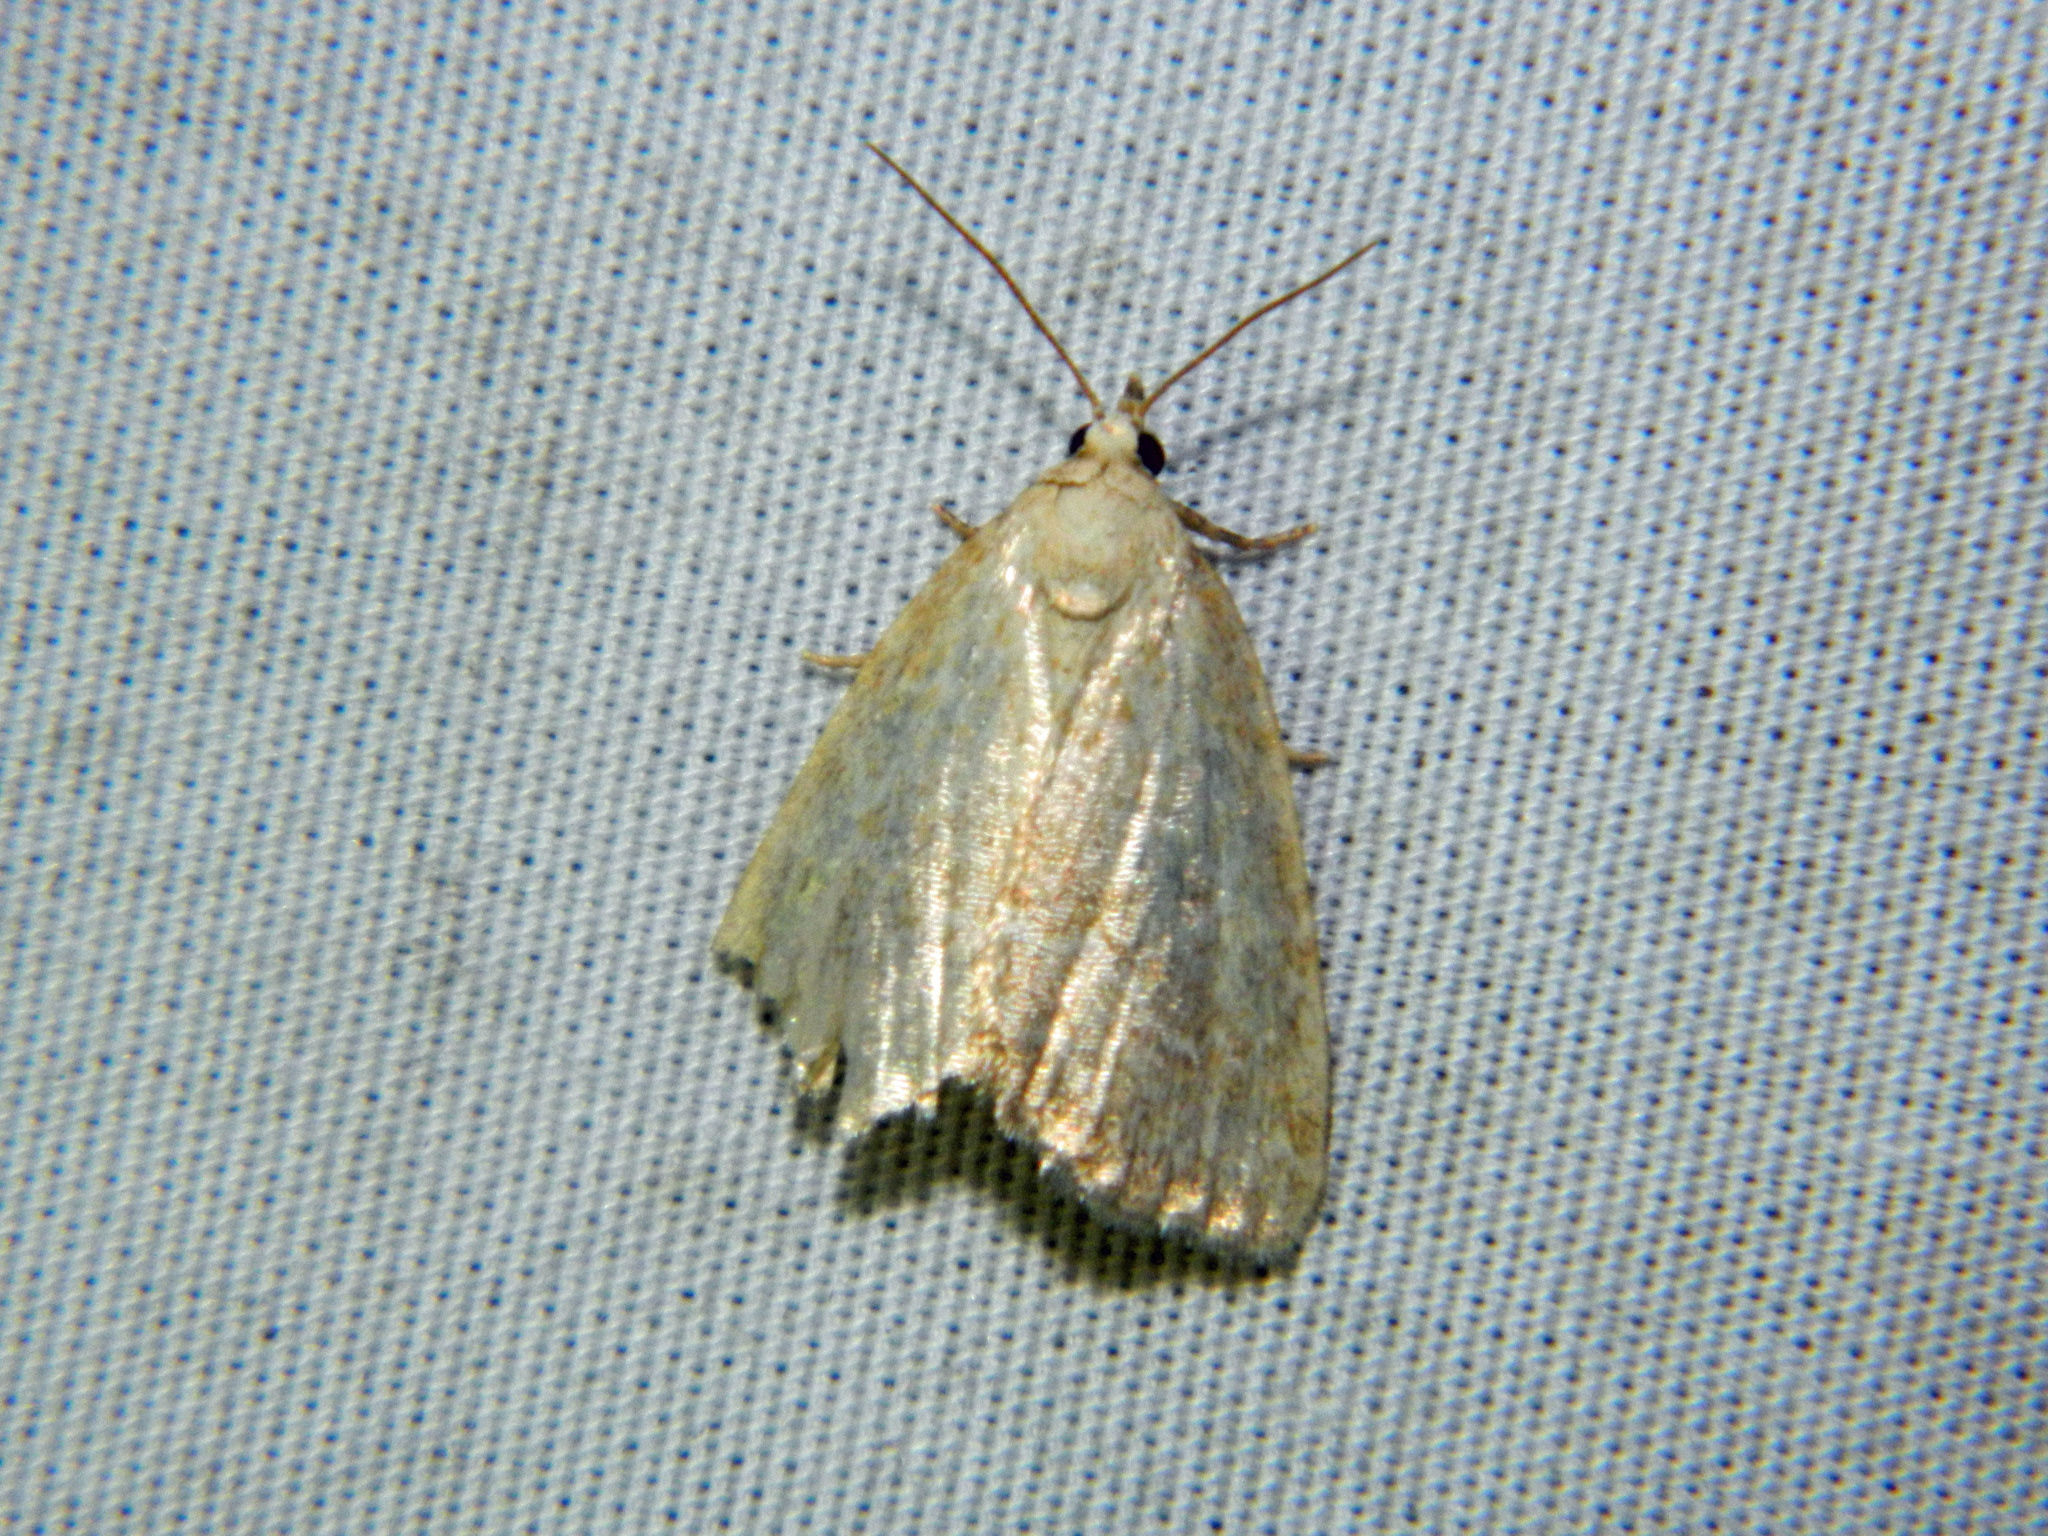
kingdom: Animalia
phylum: Arthropoda
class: Insecta
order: Lepidoptera
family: Noctuidae
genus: Protodeltote
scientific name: Protodeltote albidula
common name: Pale glyph
